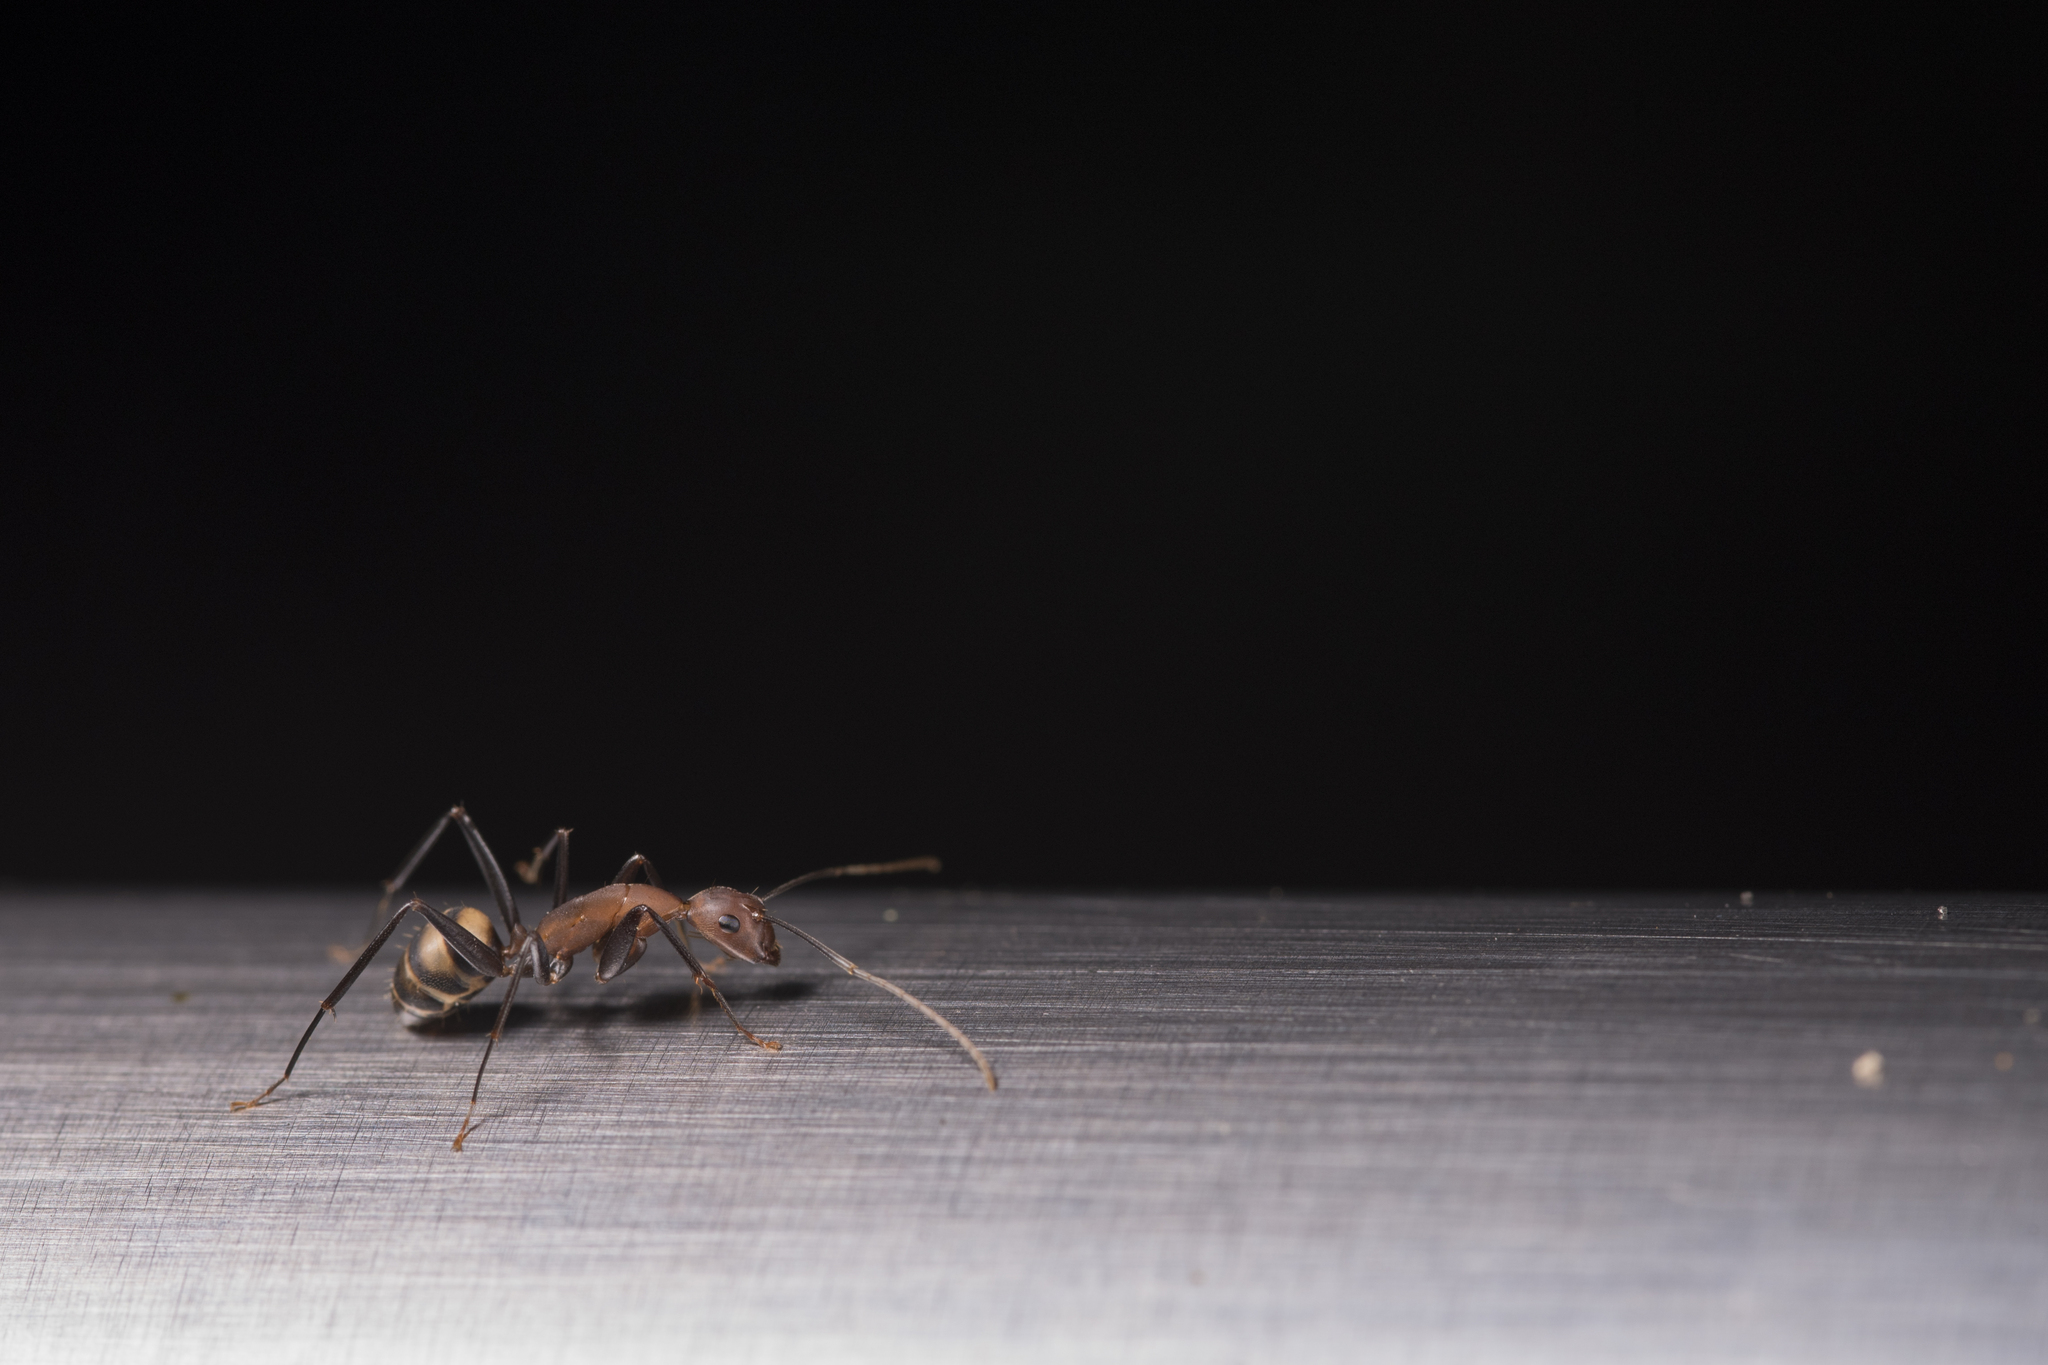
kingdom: Animalia
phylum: Arthropoda
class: Insecta
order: Hymenoptera
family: Formicidae
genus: Camponotus
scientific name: Camponotus habereri
